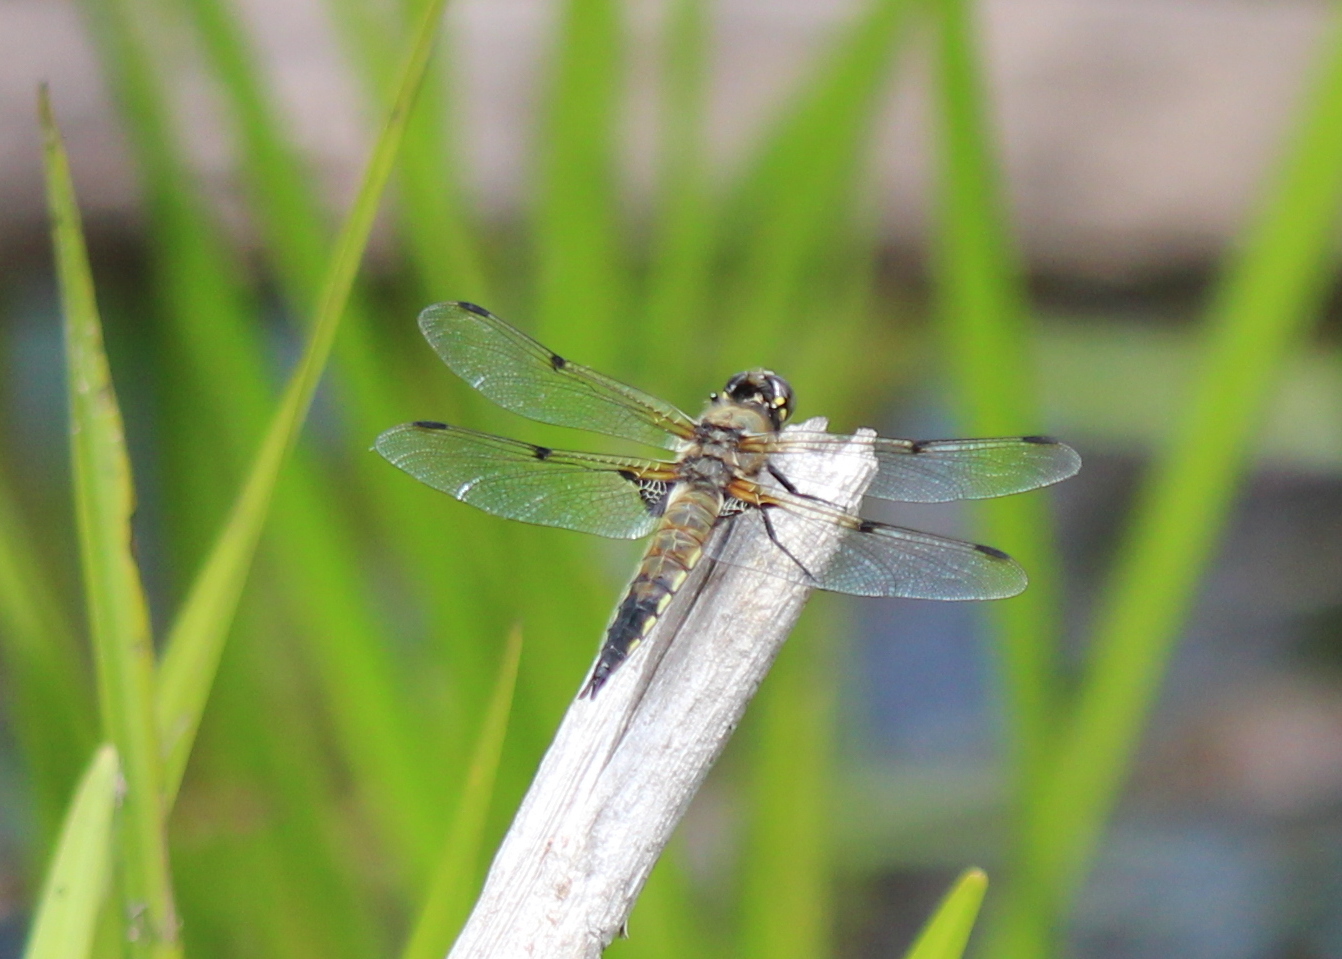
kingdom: Animalia
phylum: Arthropoda
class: Insecta
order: Odonata
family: Libellulidae
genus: Libellula
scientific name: Libellula quadrimaculata
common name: Four-spotted chaser
